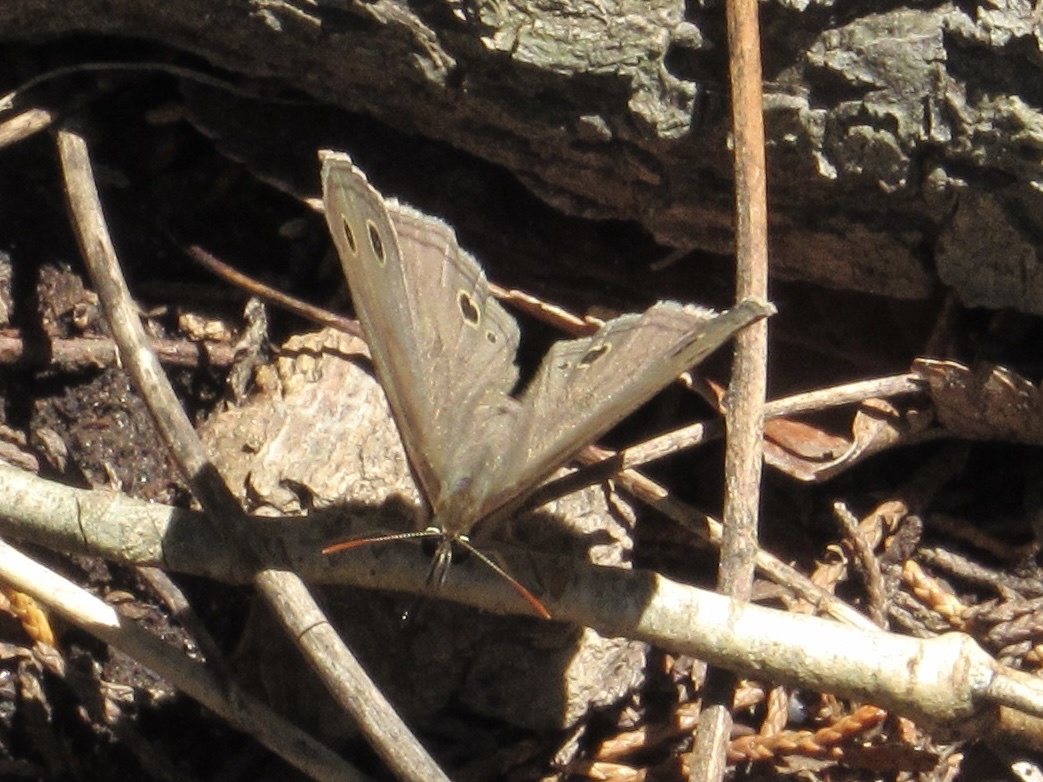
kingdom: Animalia
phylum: Arthropoda
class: Insecta
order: Lepidoptera
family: Nymphalidae
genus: Euptychia
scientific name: Euptychia cymela
